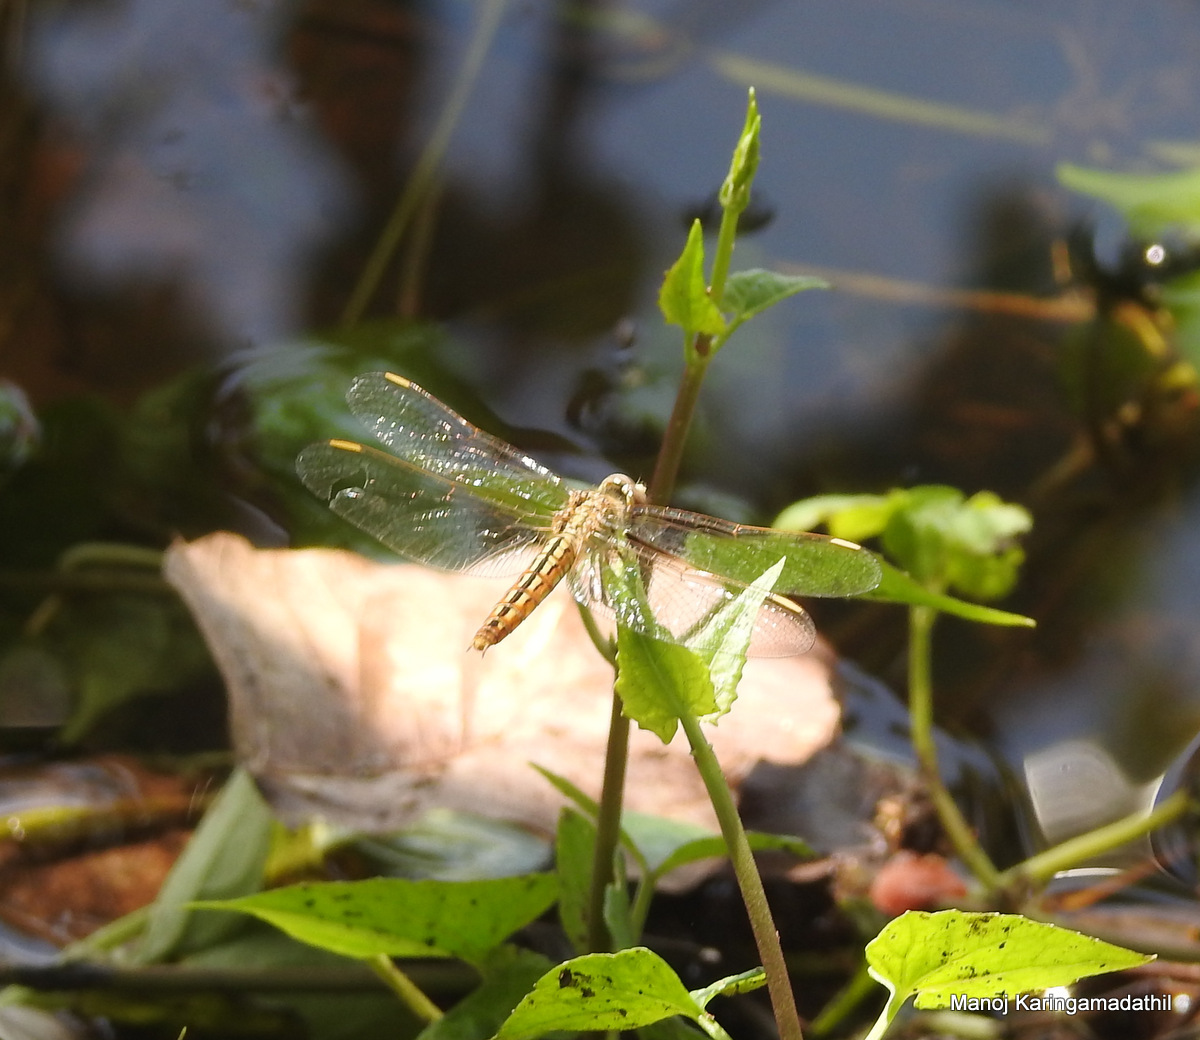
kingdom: Animalia
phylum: Arthropoda
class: Insecta
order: Odonata
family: Libellulidae
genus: Brachythemis
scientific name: Brachythemis contaminata
